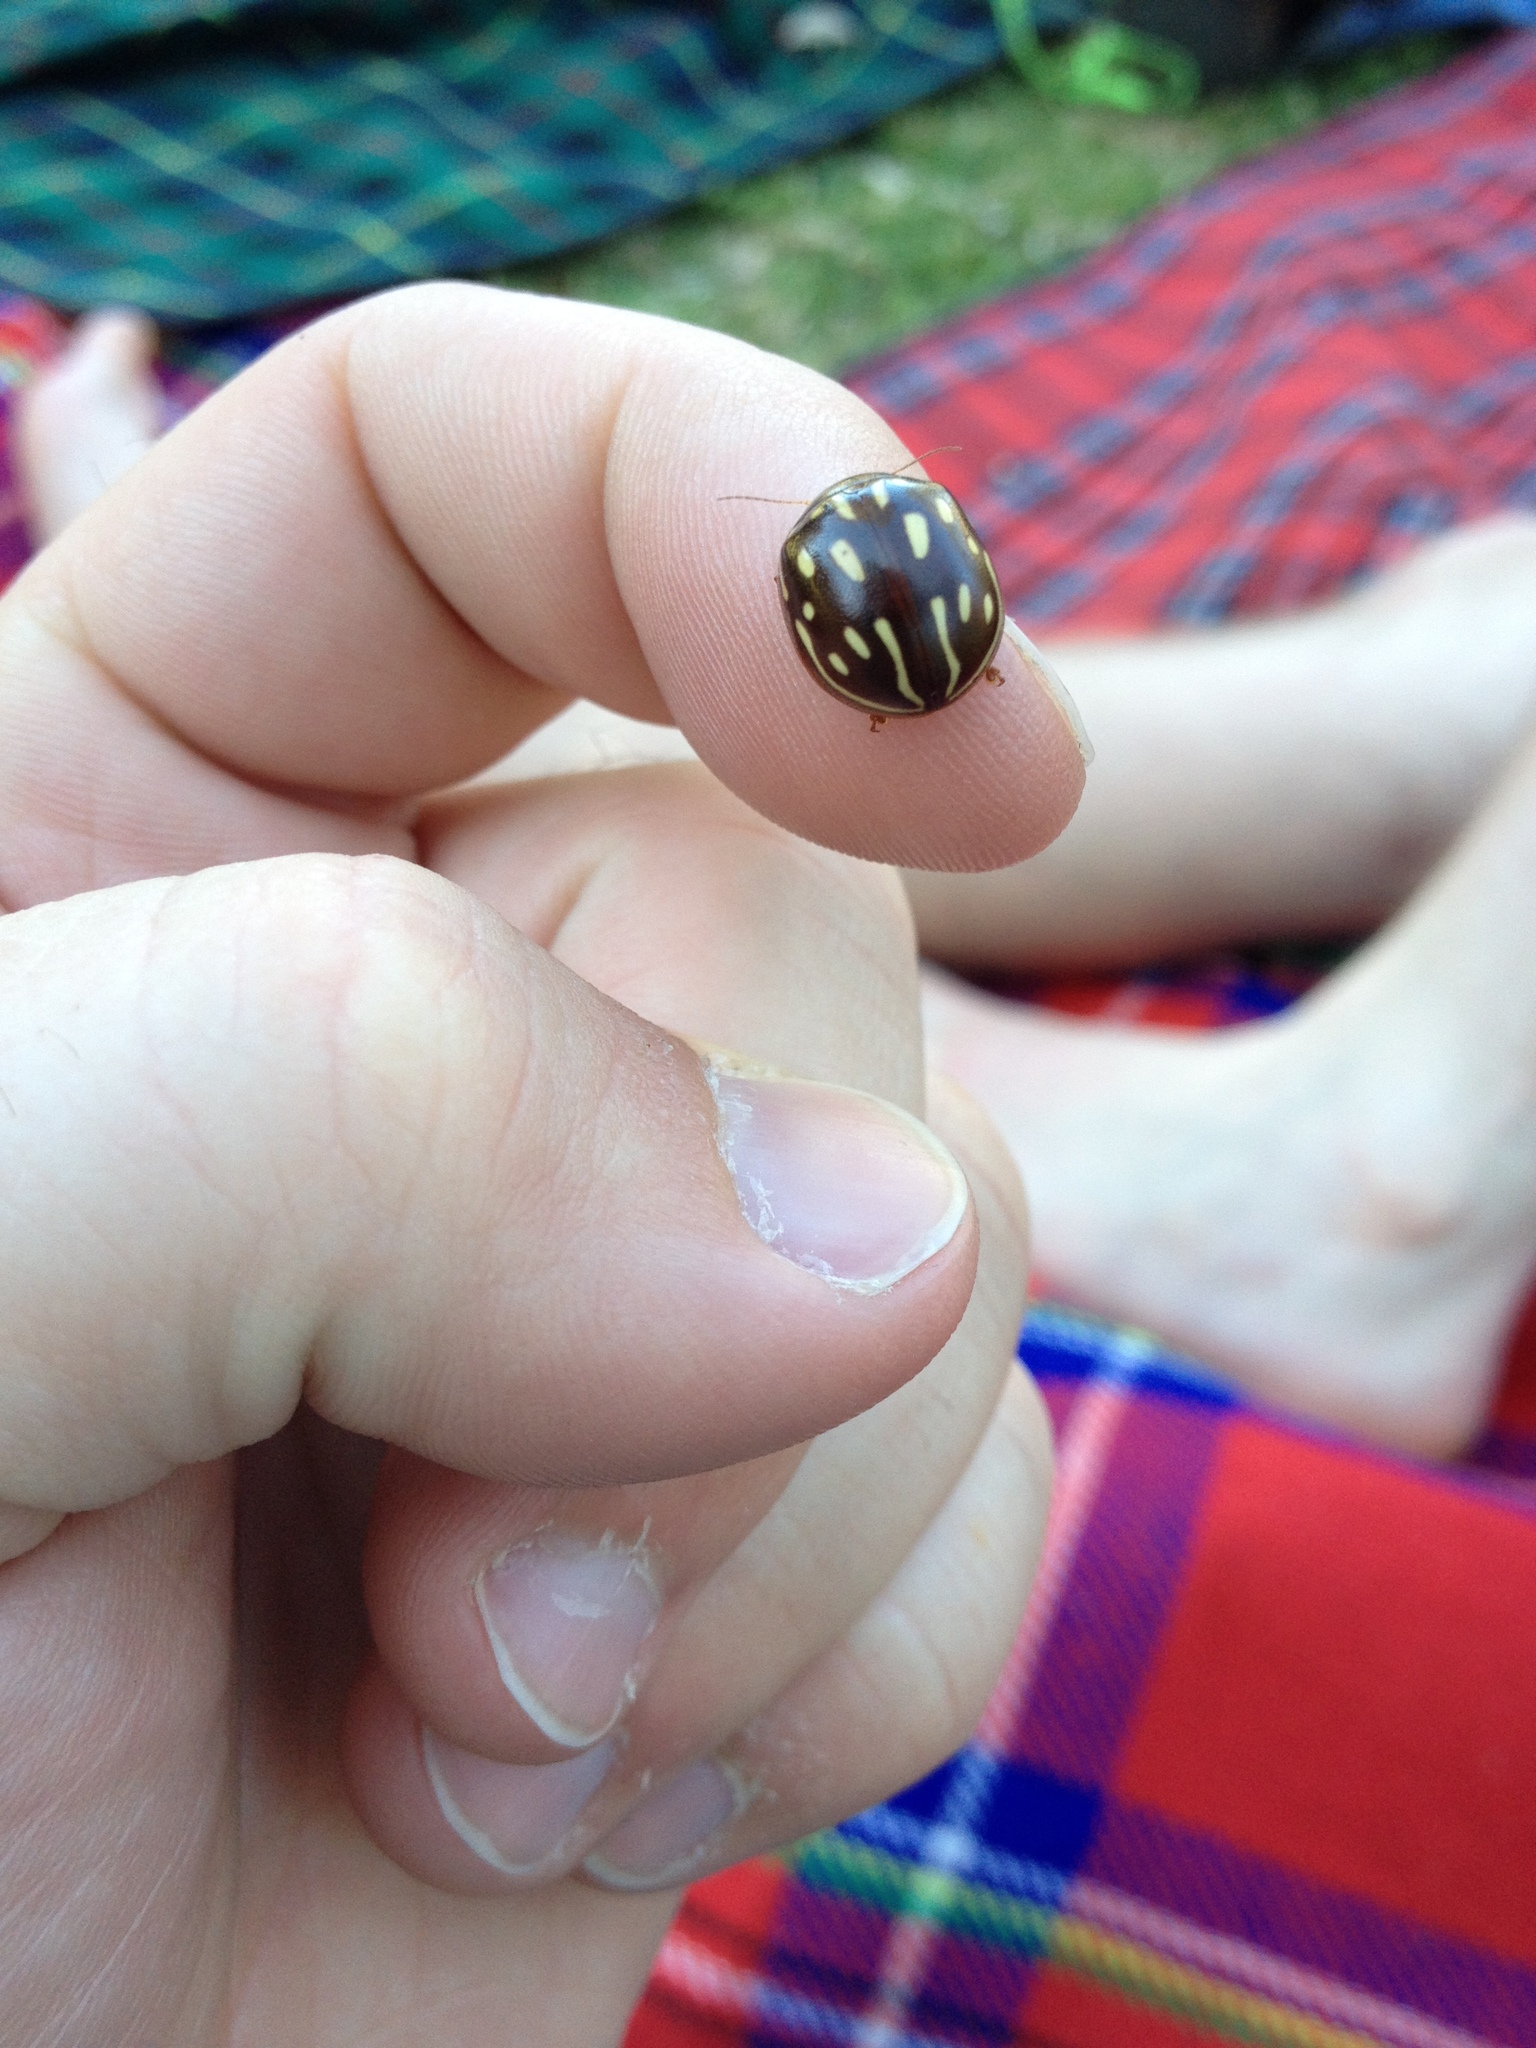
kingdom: Animalia
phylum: Arthropoda
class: Insecta
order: Coleoptera
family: Chrysomelidae
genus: Paropsisterna
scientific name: Paropsisterna
